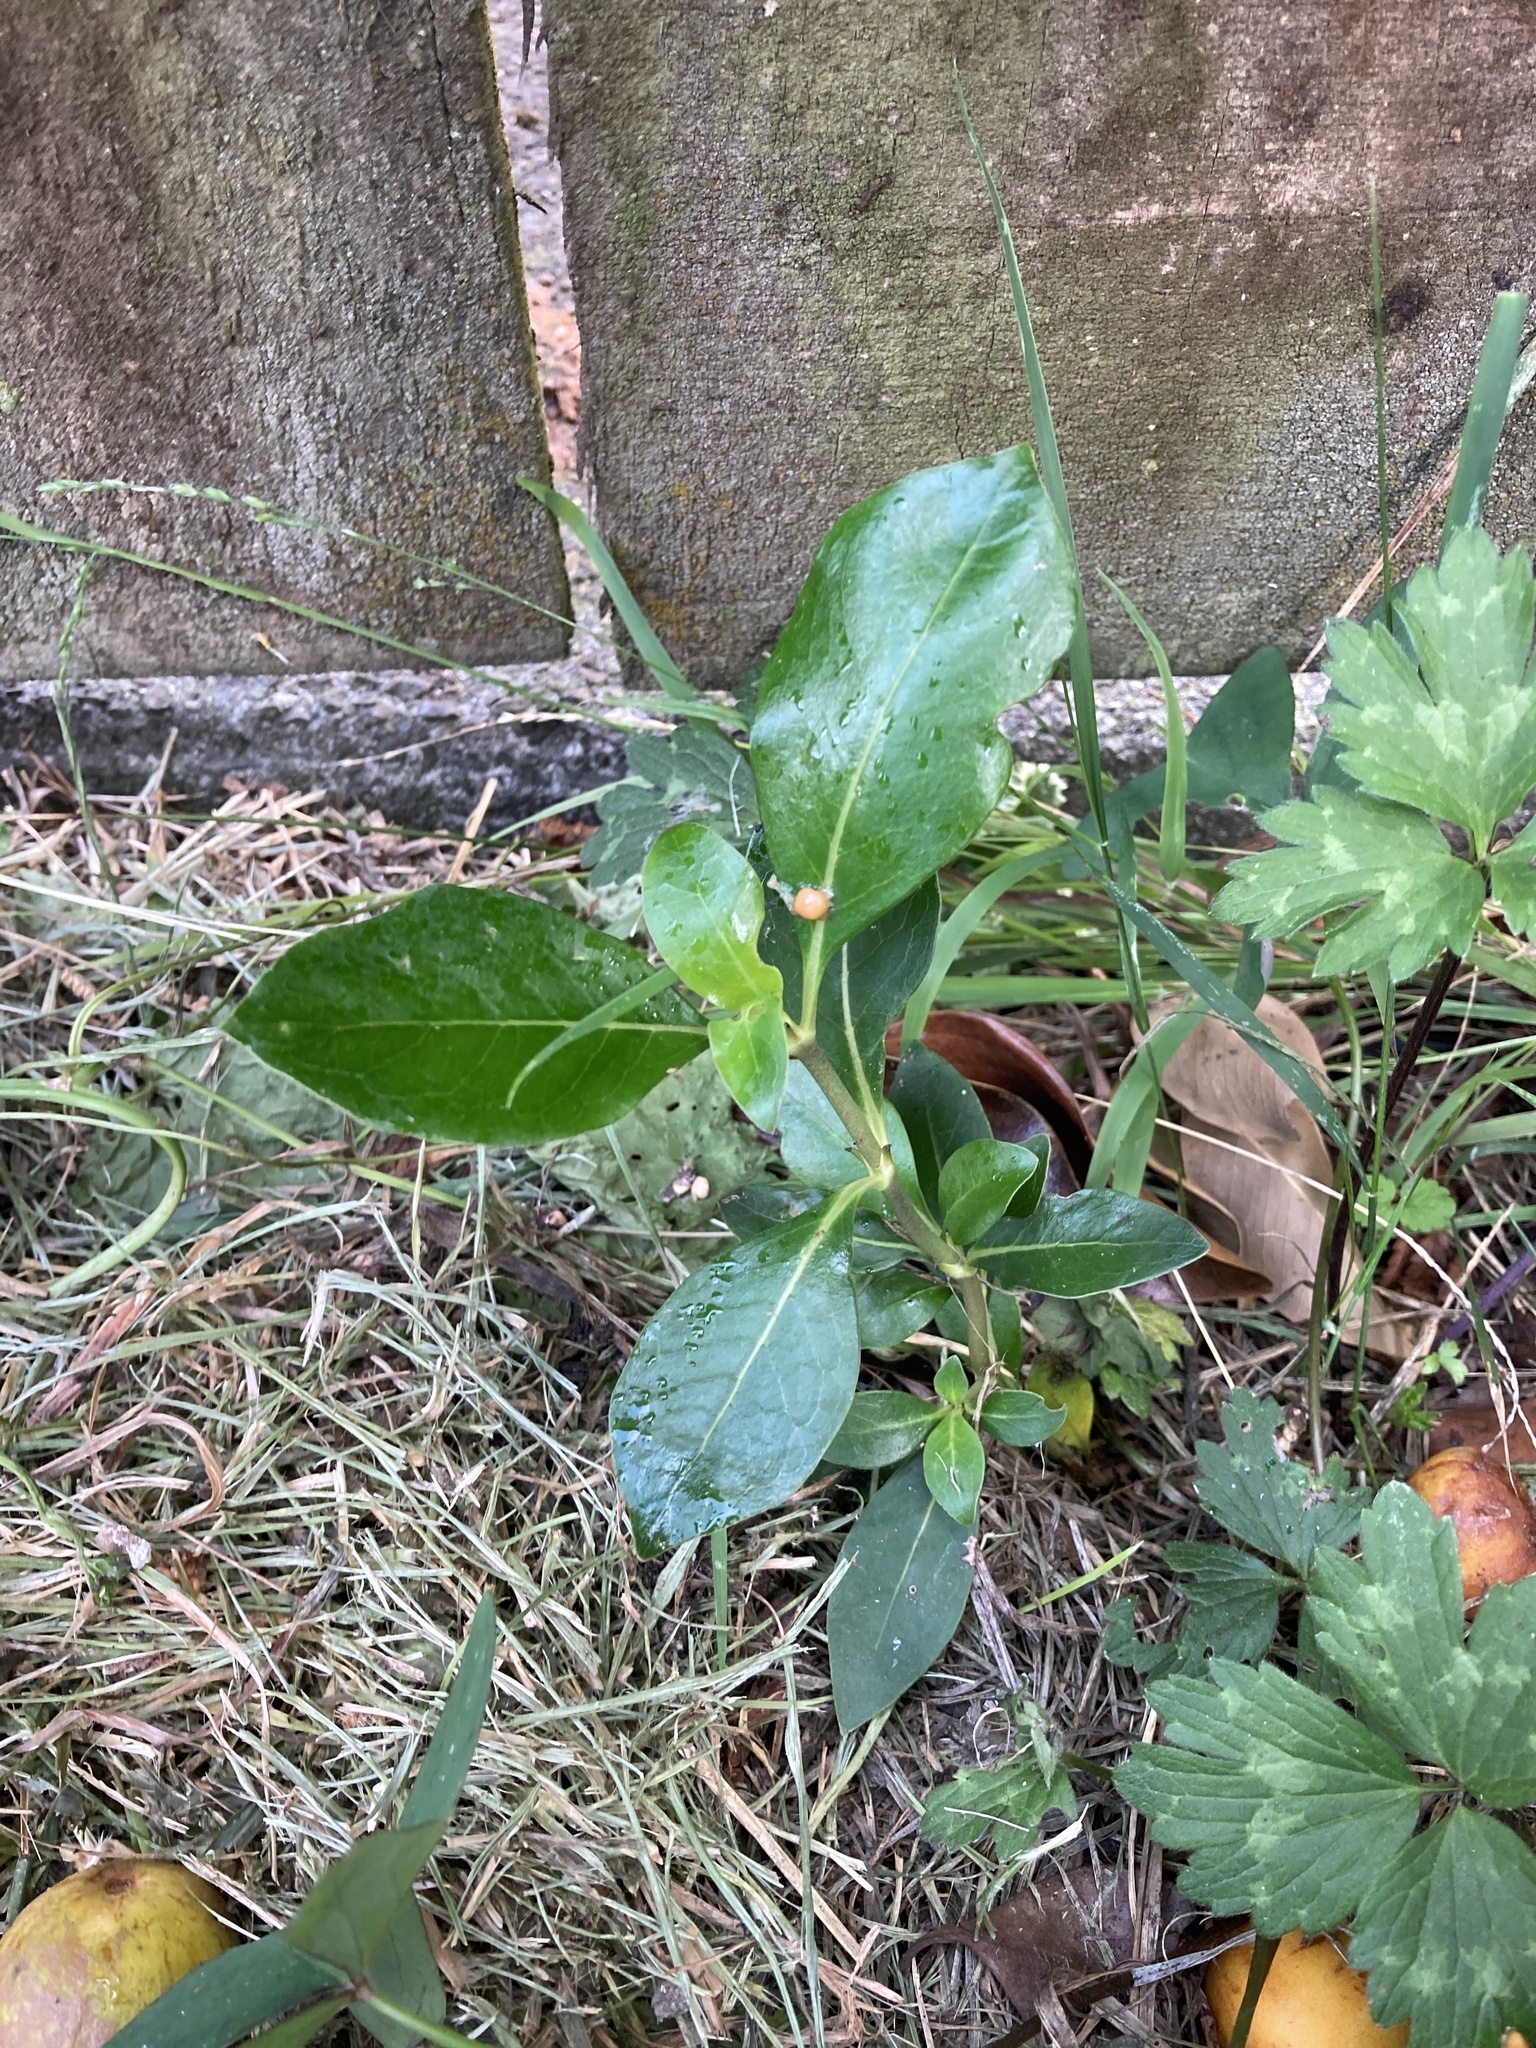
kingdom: Plantae
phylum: Tracheophyta
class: Magnoliopsida
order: Gentianales
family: Rubiaceae
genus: Coprosma
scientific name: Coprosma robusta
